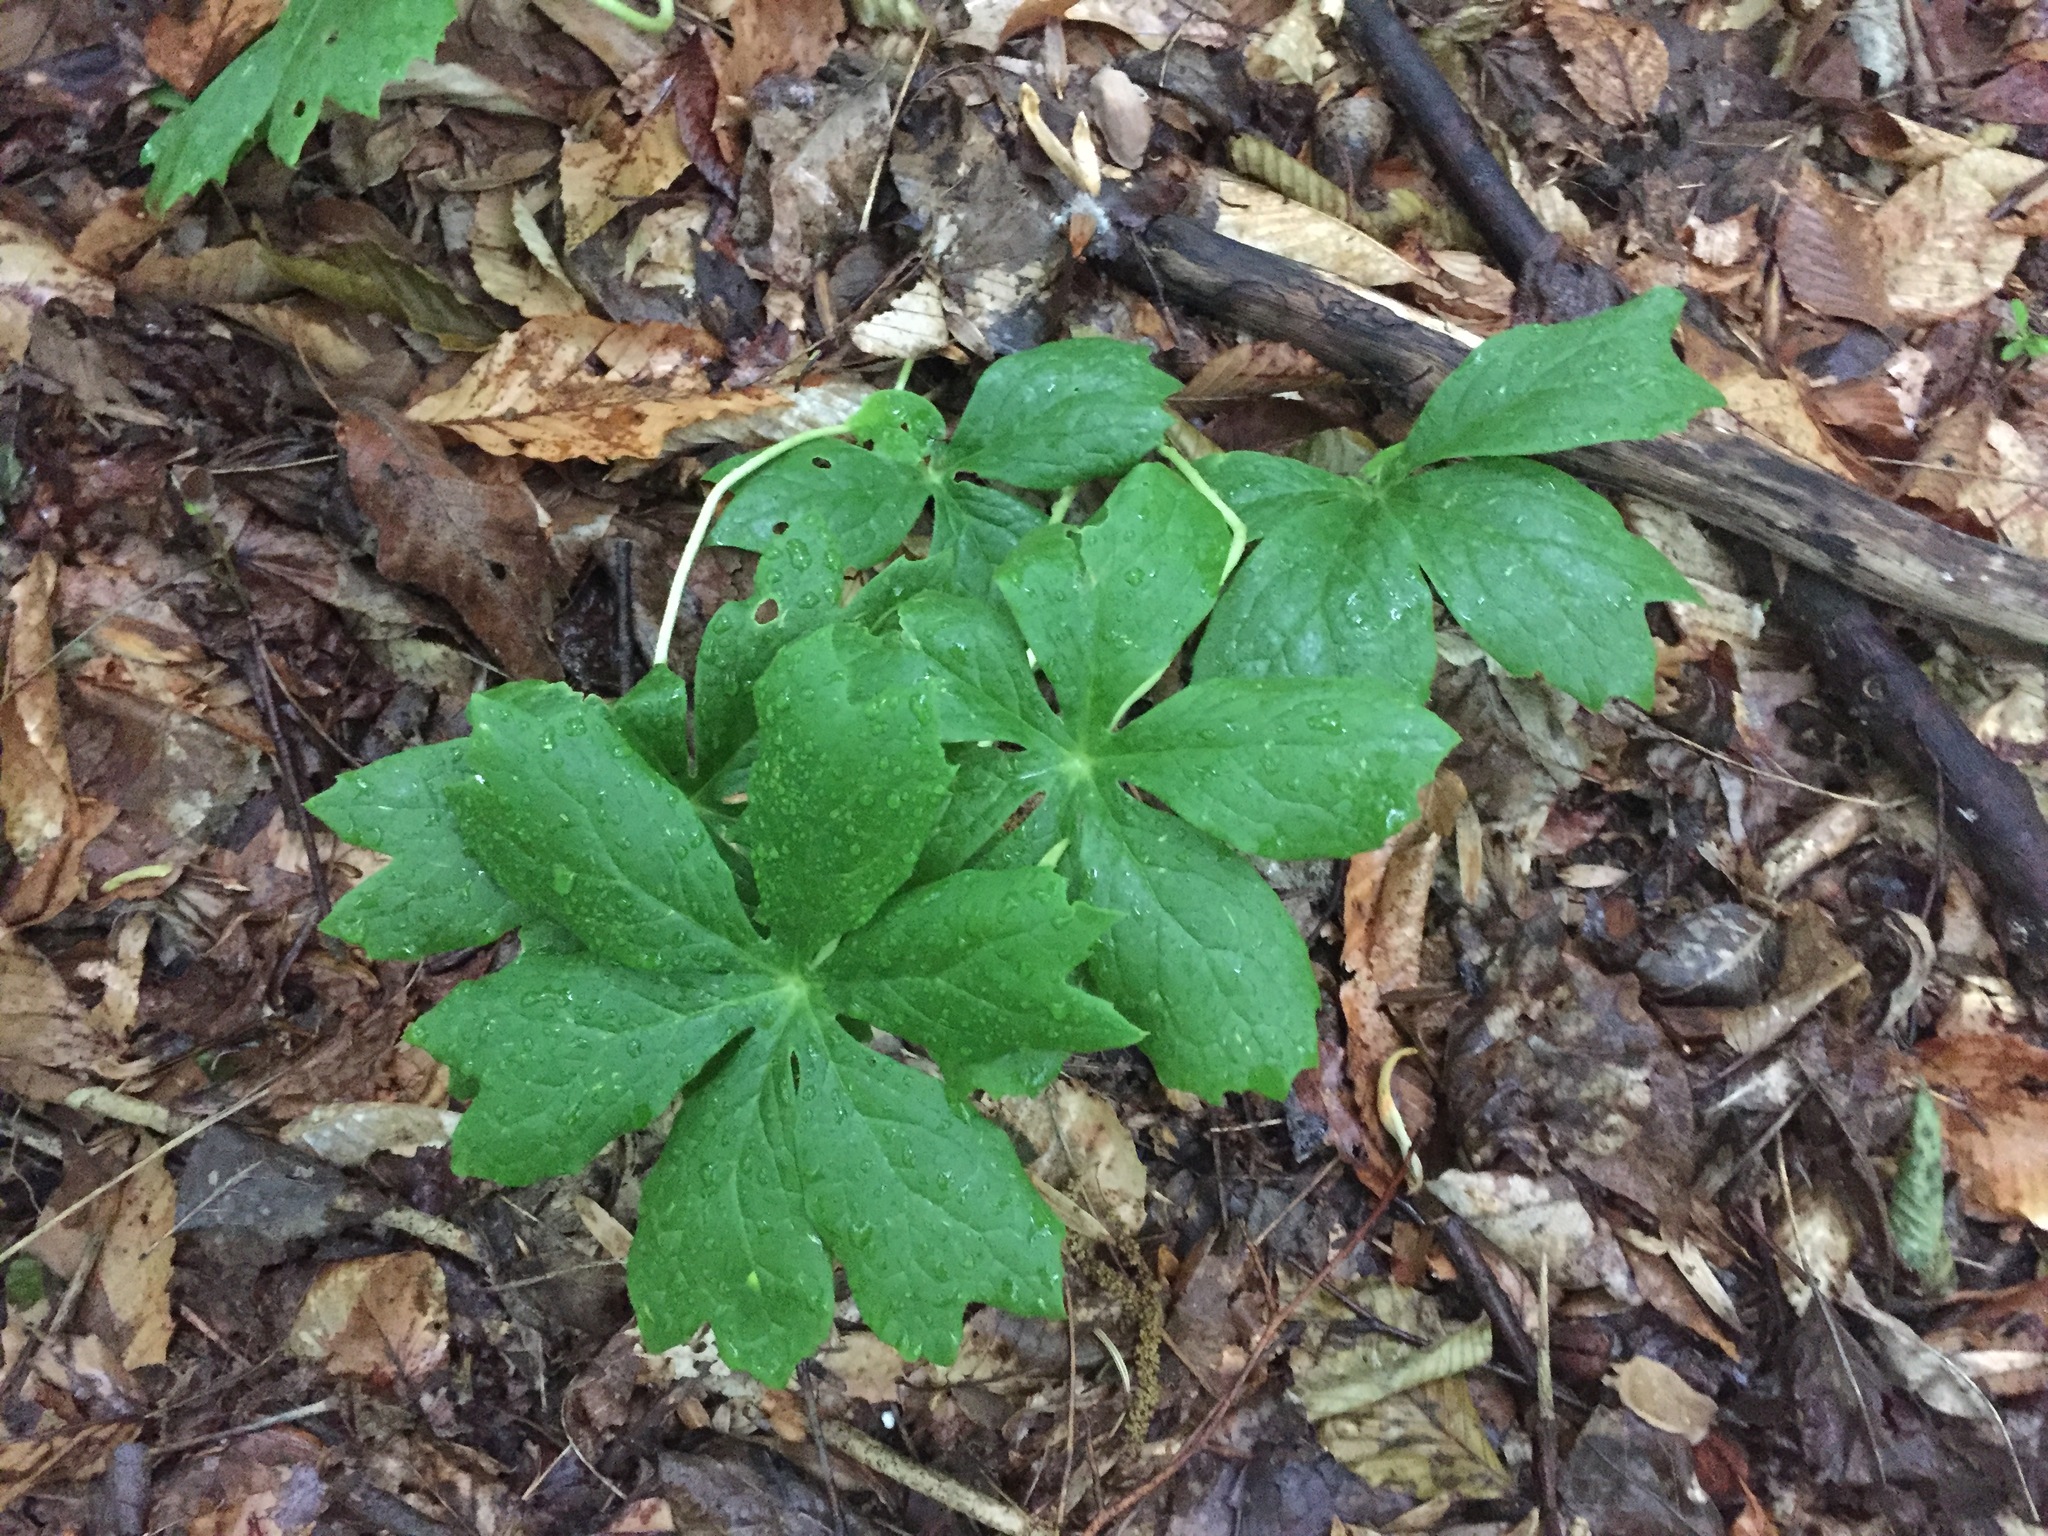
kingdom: Plantae
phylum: Tracheophyta
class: Magnoliopsida
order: Ranunculales
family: Berberidaceae
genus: Podophyllum
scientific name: Podophyllum peltatum
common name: Wild mandrake
